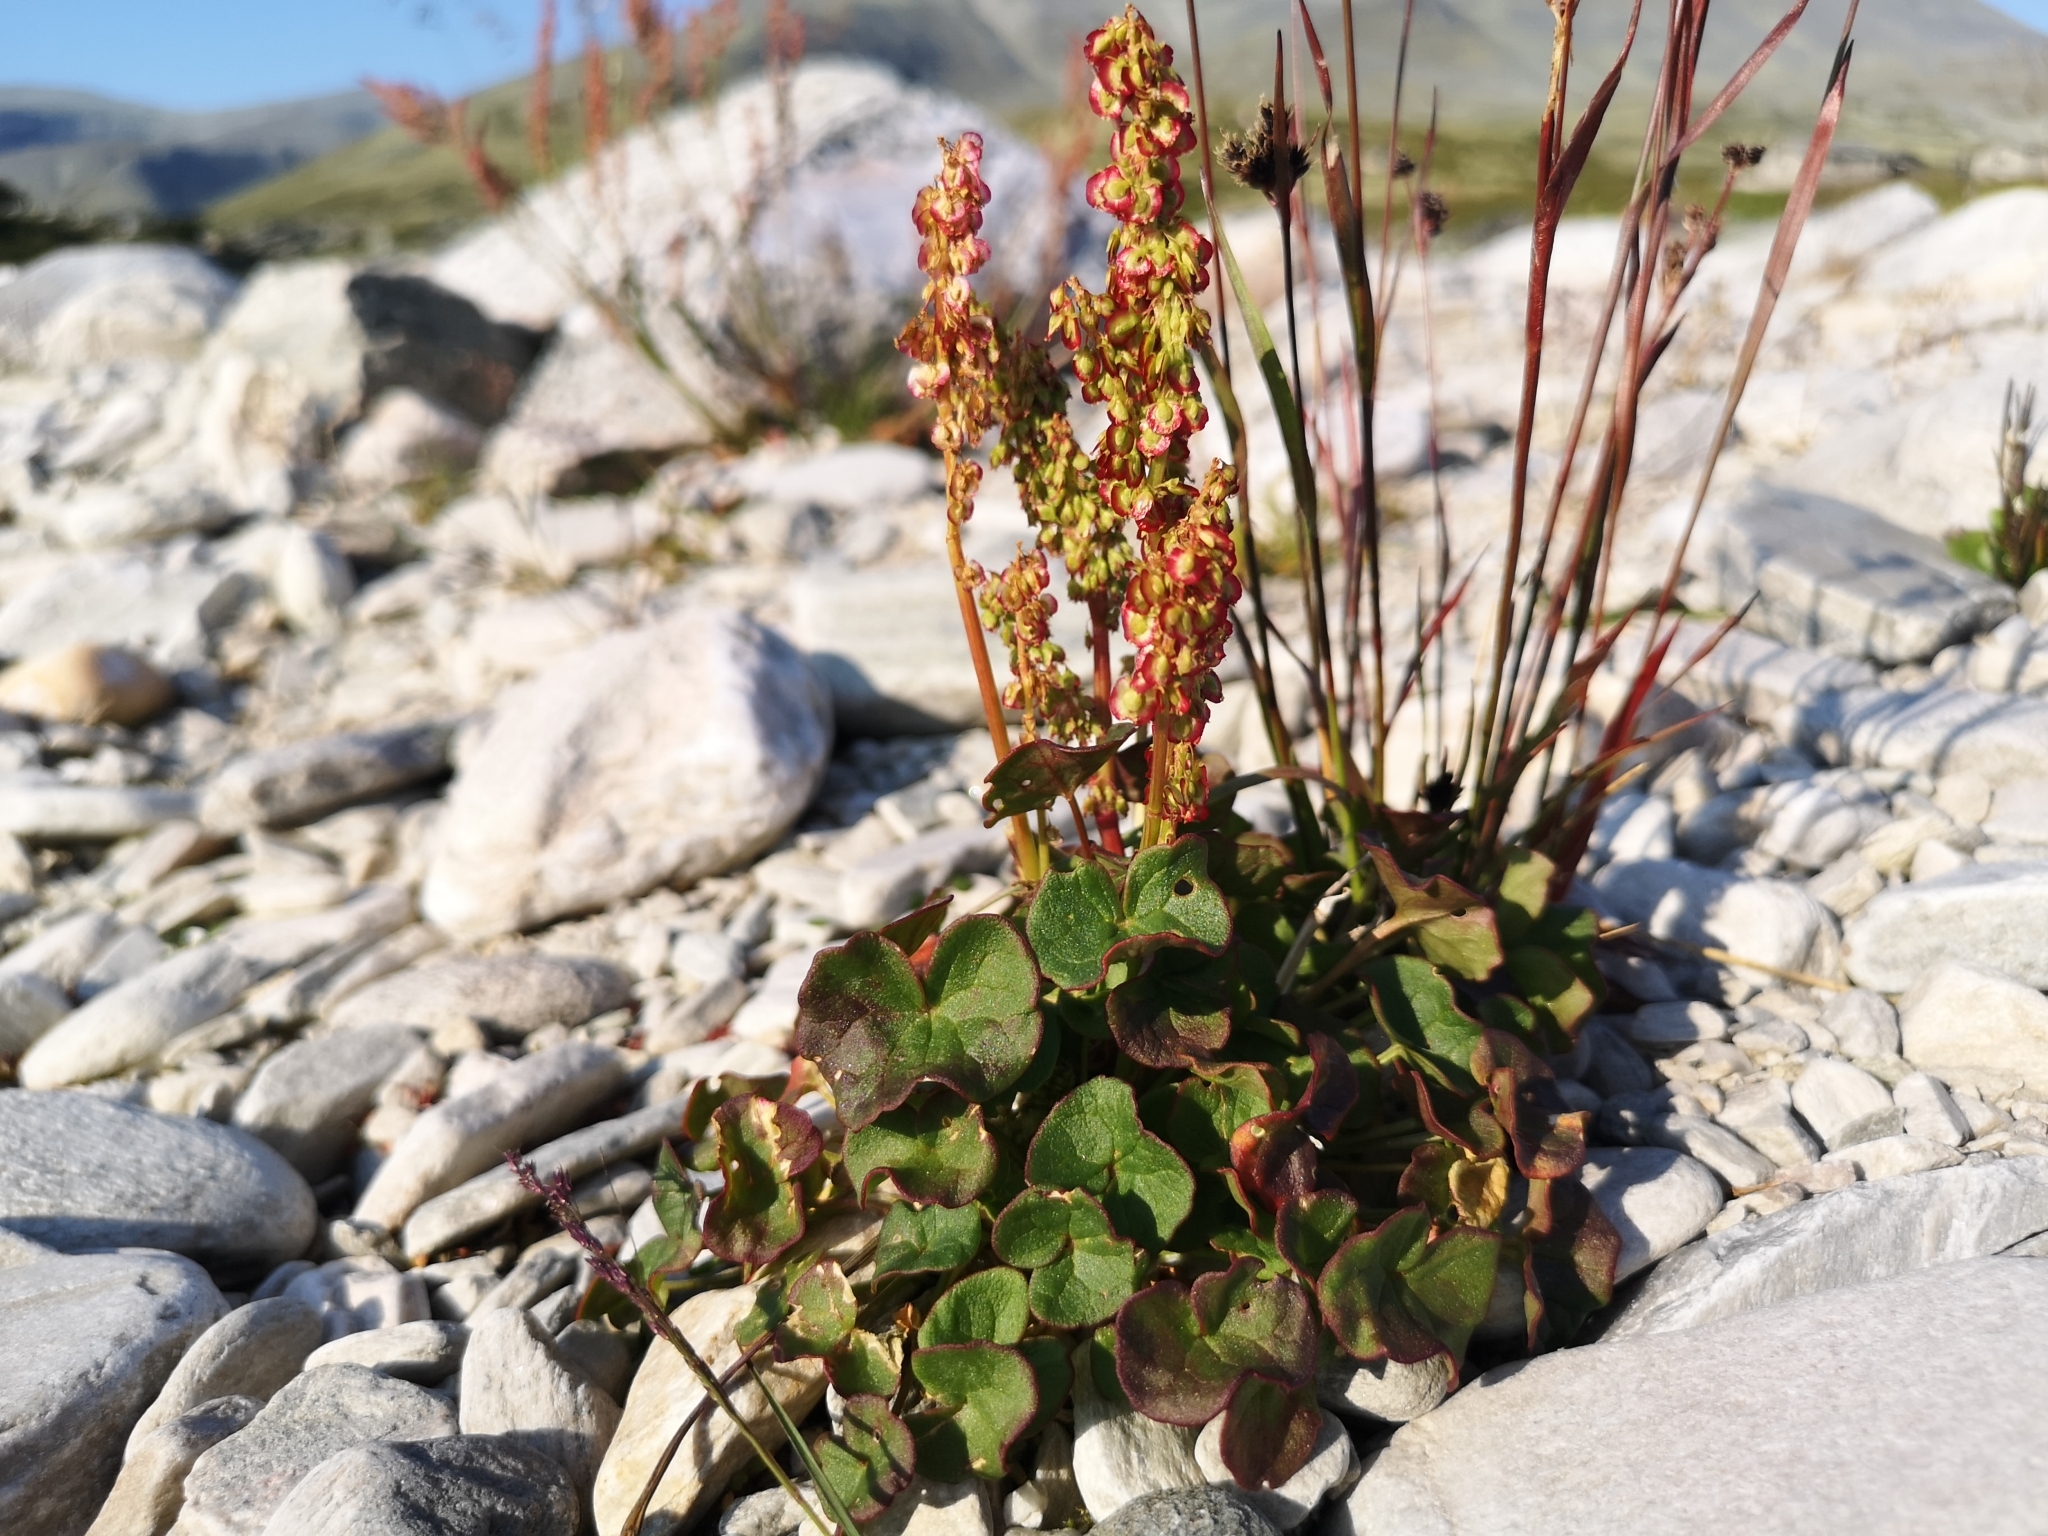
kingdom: Plantae
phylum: Tracheophyta
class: Magnoliopsida
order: Caryophyllales
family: Polygonaceae
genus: Oxyria
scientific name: Oxyria digyna
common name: Alpine mountain-sorrel
